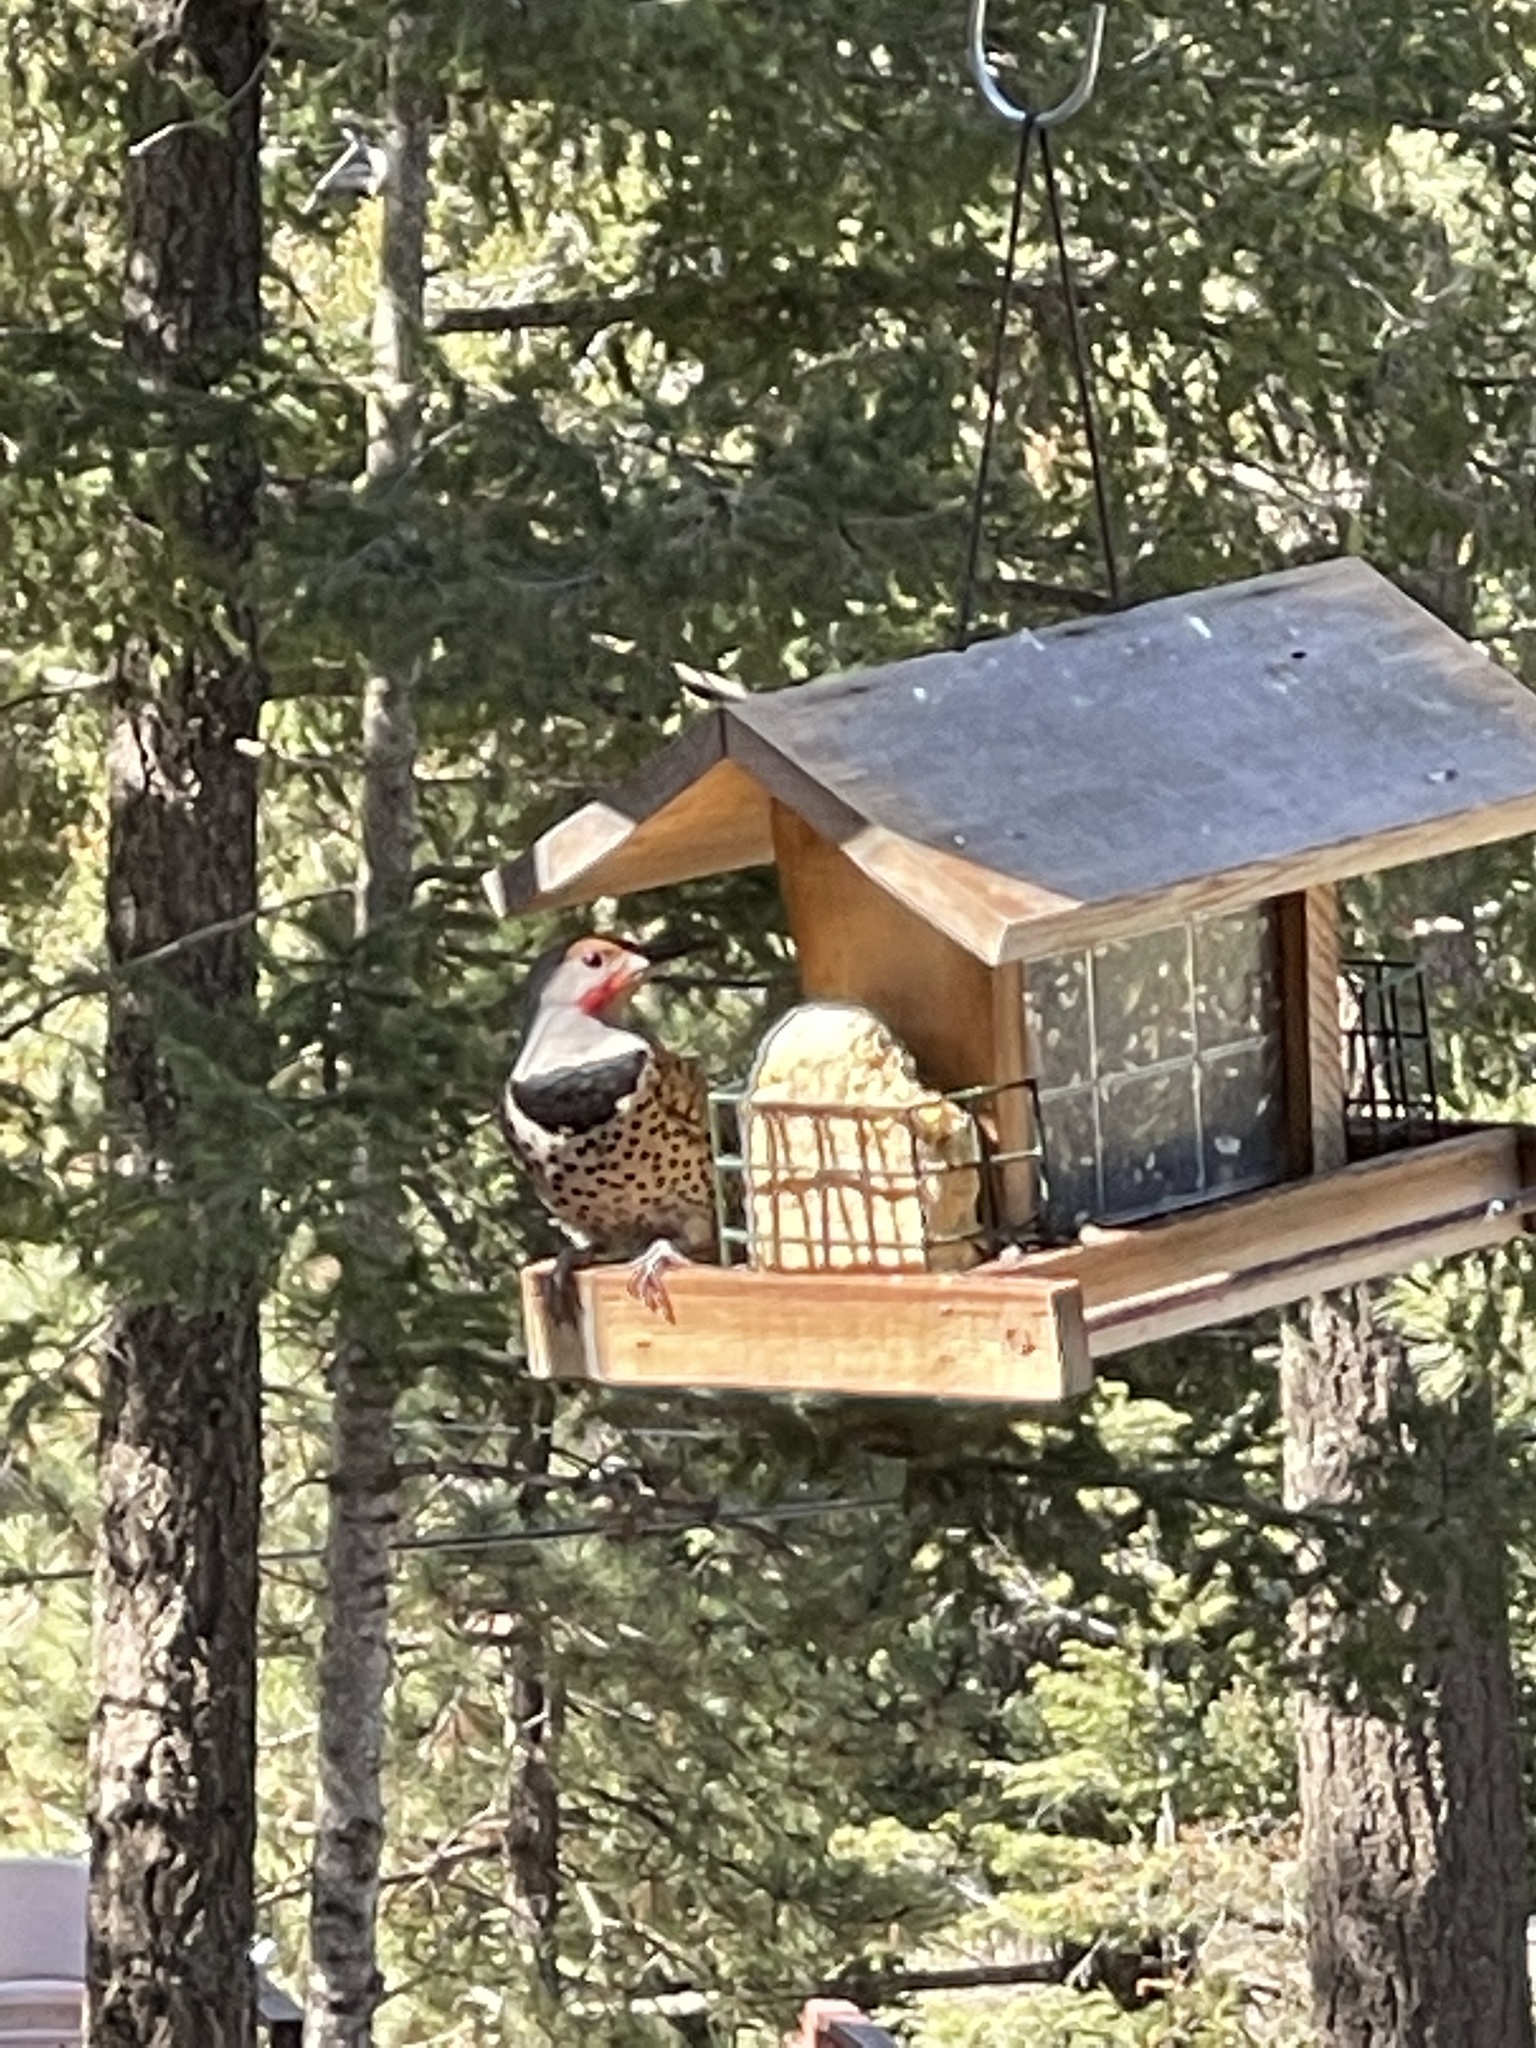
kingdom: Animalia
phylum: Chordata
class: Aves
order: Piciformes
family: Picidae
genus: Colaptes
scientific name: Colaptes auratus
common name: Northern flicker
